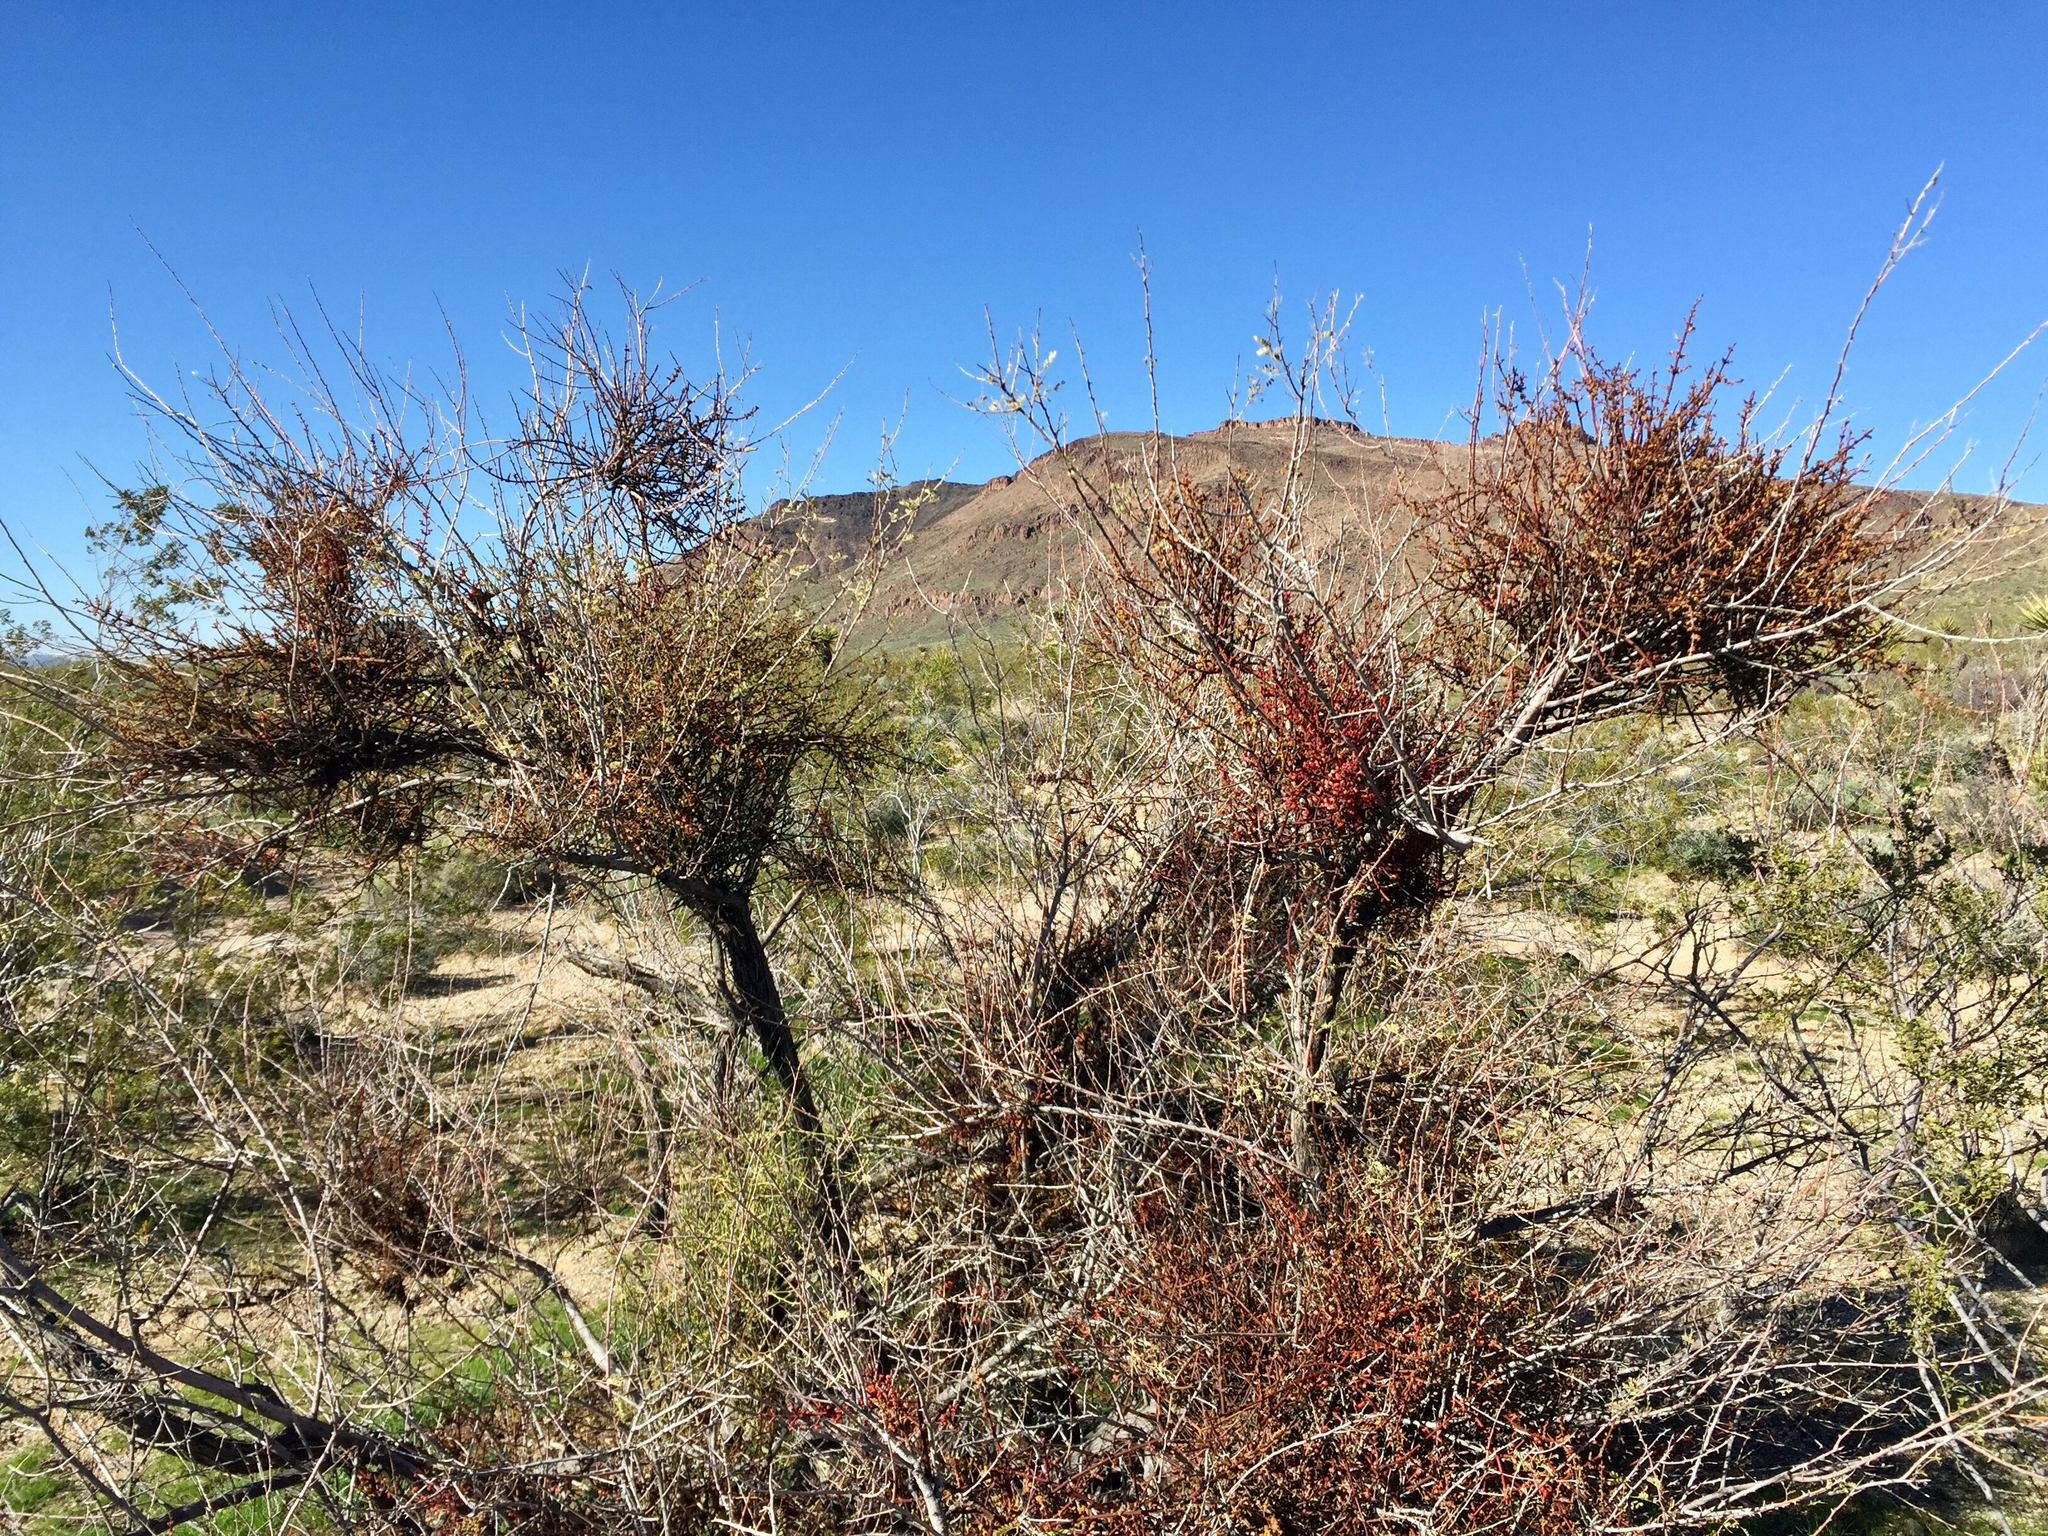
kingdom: Plantae
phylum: Tracheophyta
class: Magnoliopsida
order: Santalales
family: Viscaceae
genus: Phoradendron
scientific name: Phoradendron californicum
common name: Acacia mistletoe
